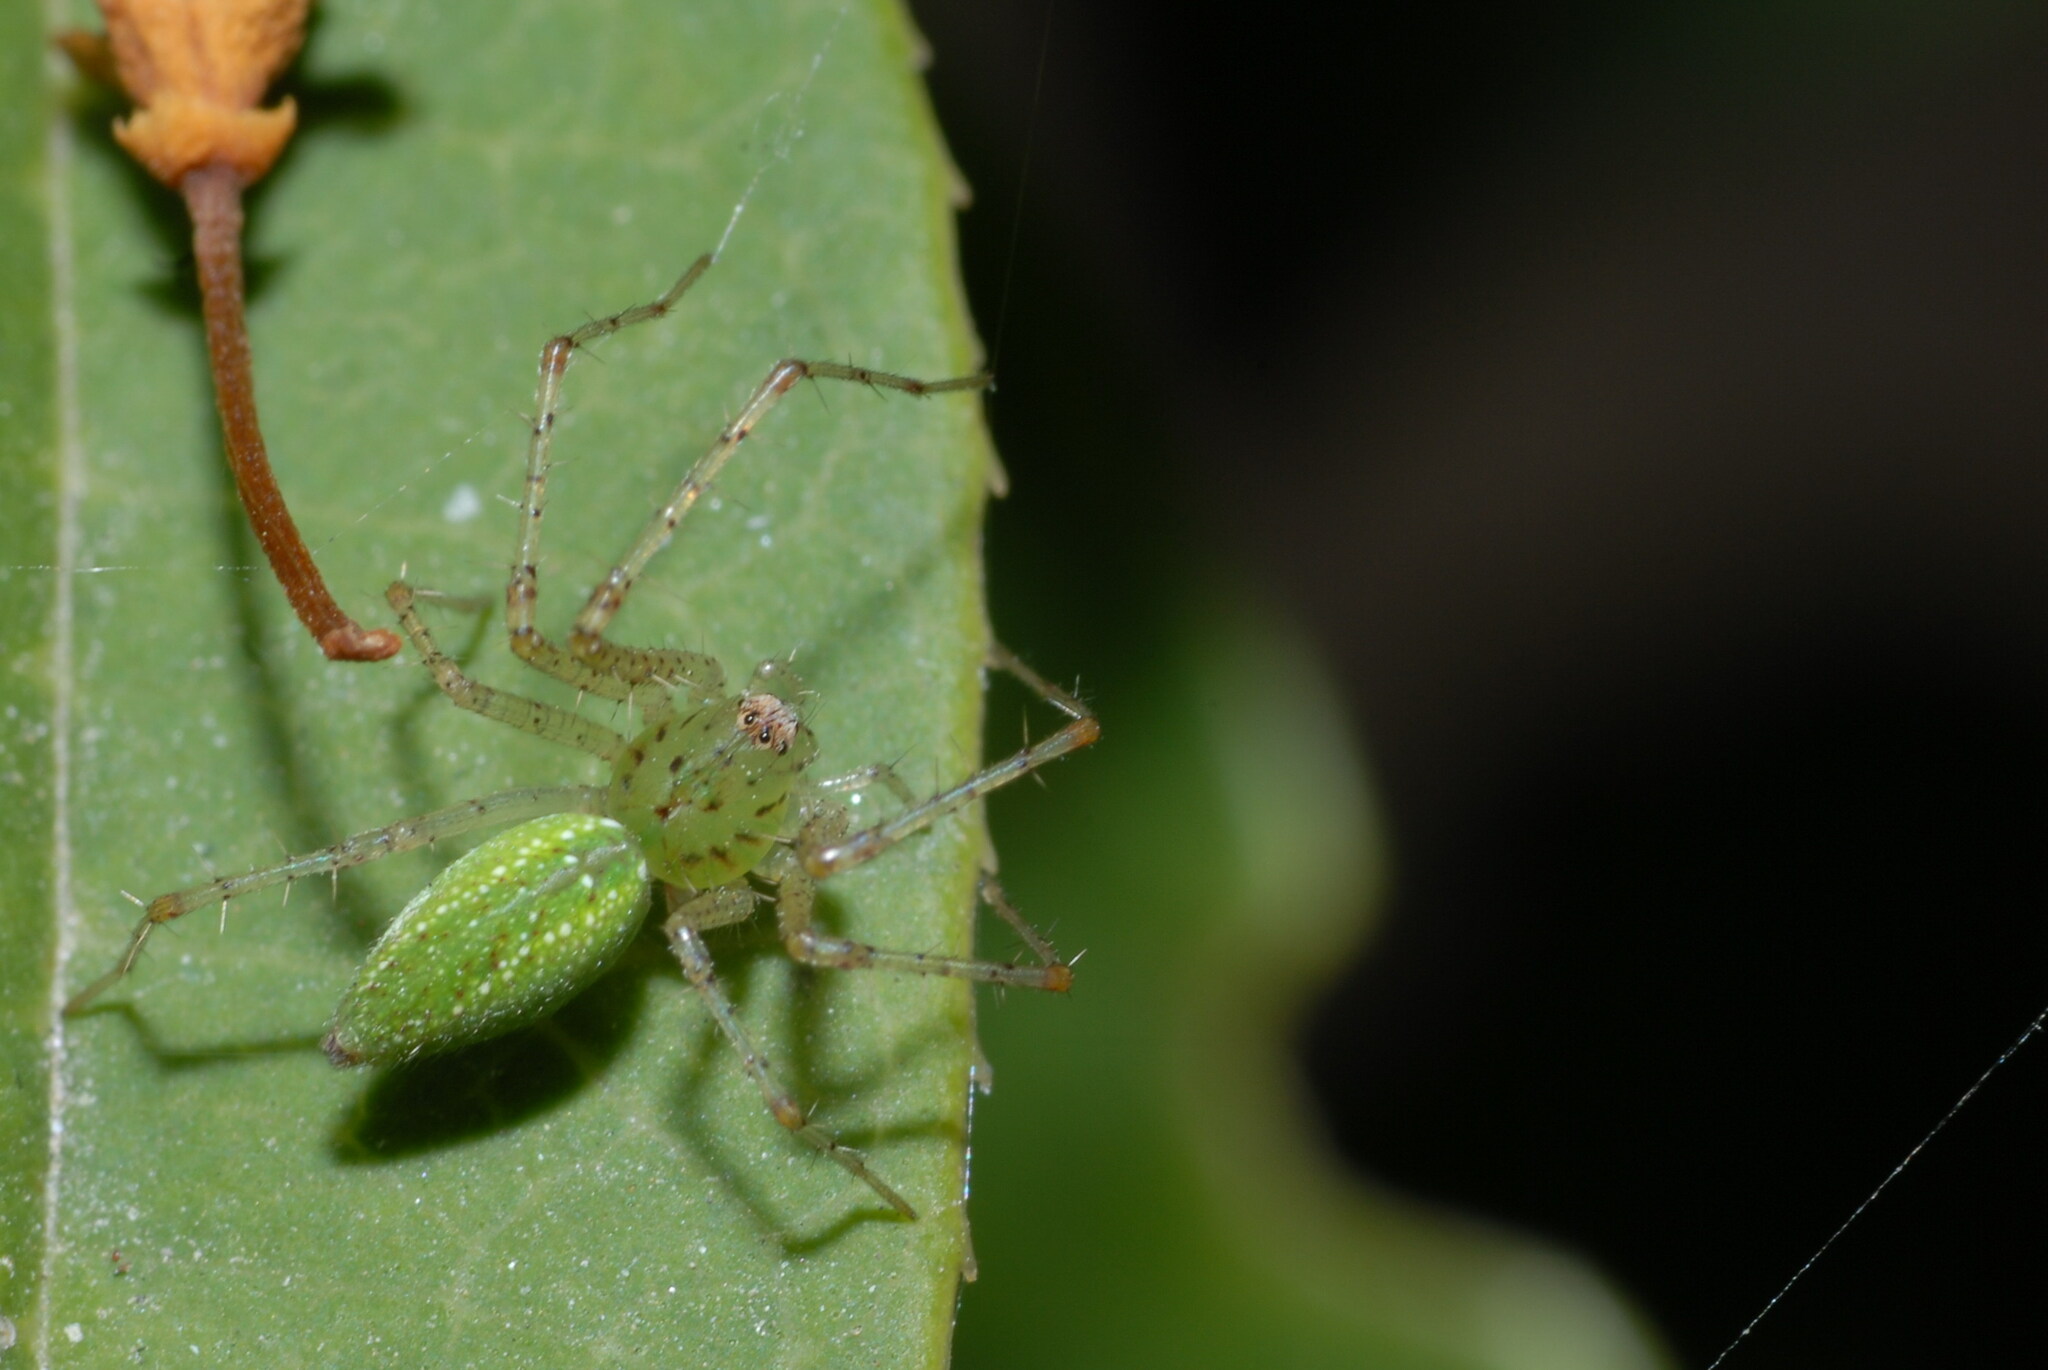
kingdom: Animalia
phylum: Arthropoda
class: Arachnida
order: Araneae
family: Oxyopidae
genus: Peucetia
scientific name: Peucetia formosensis
